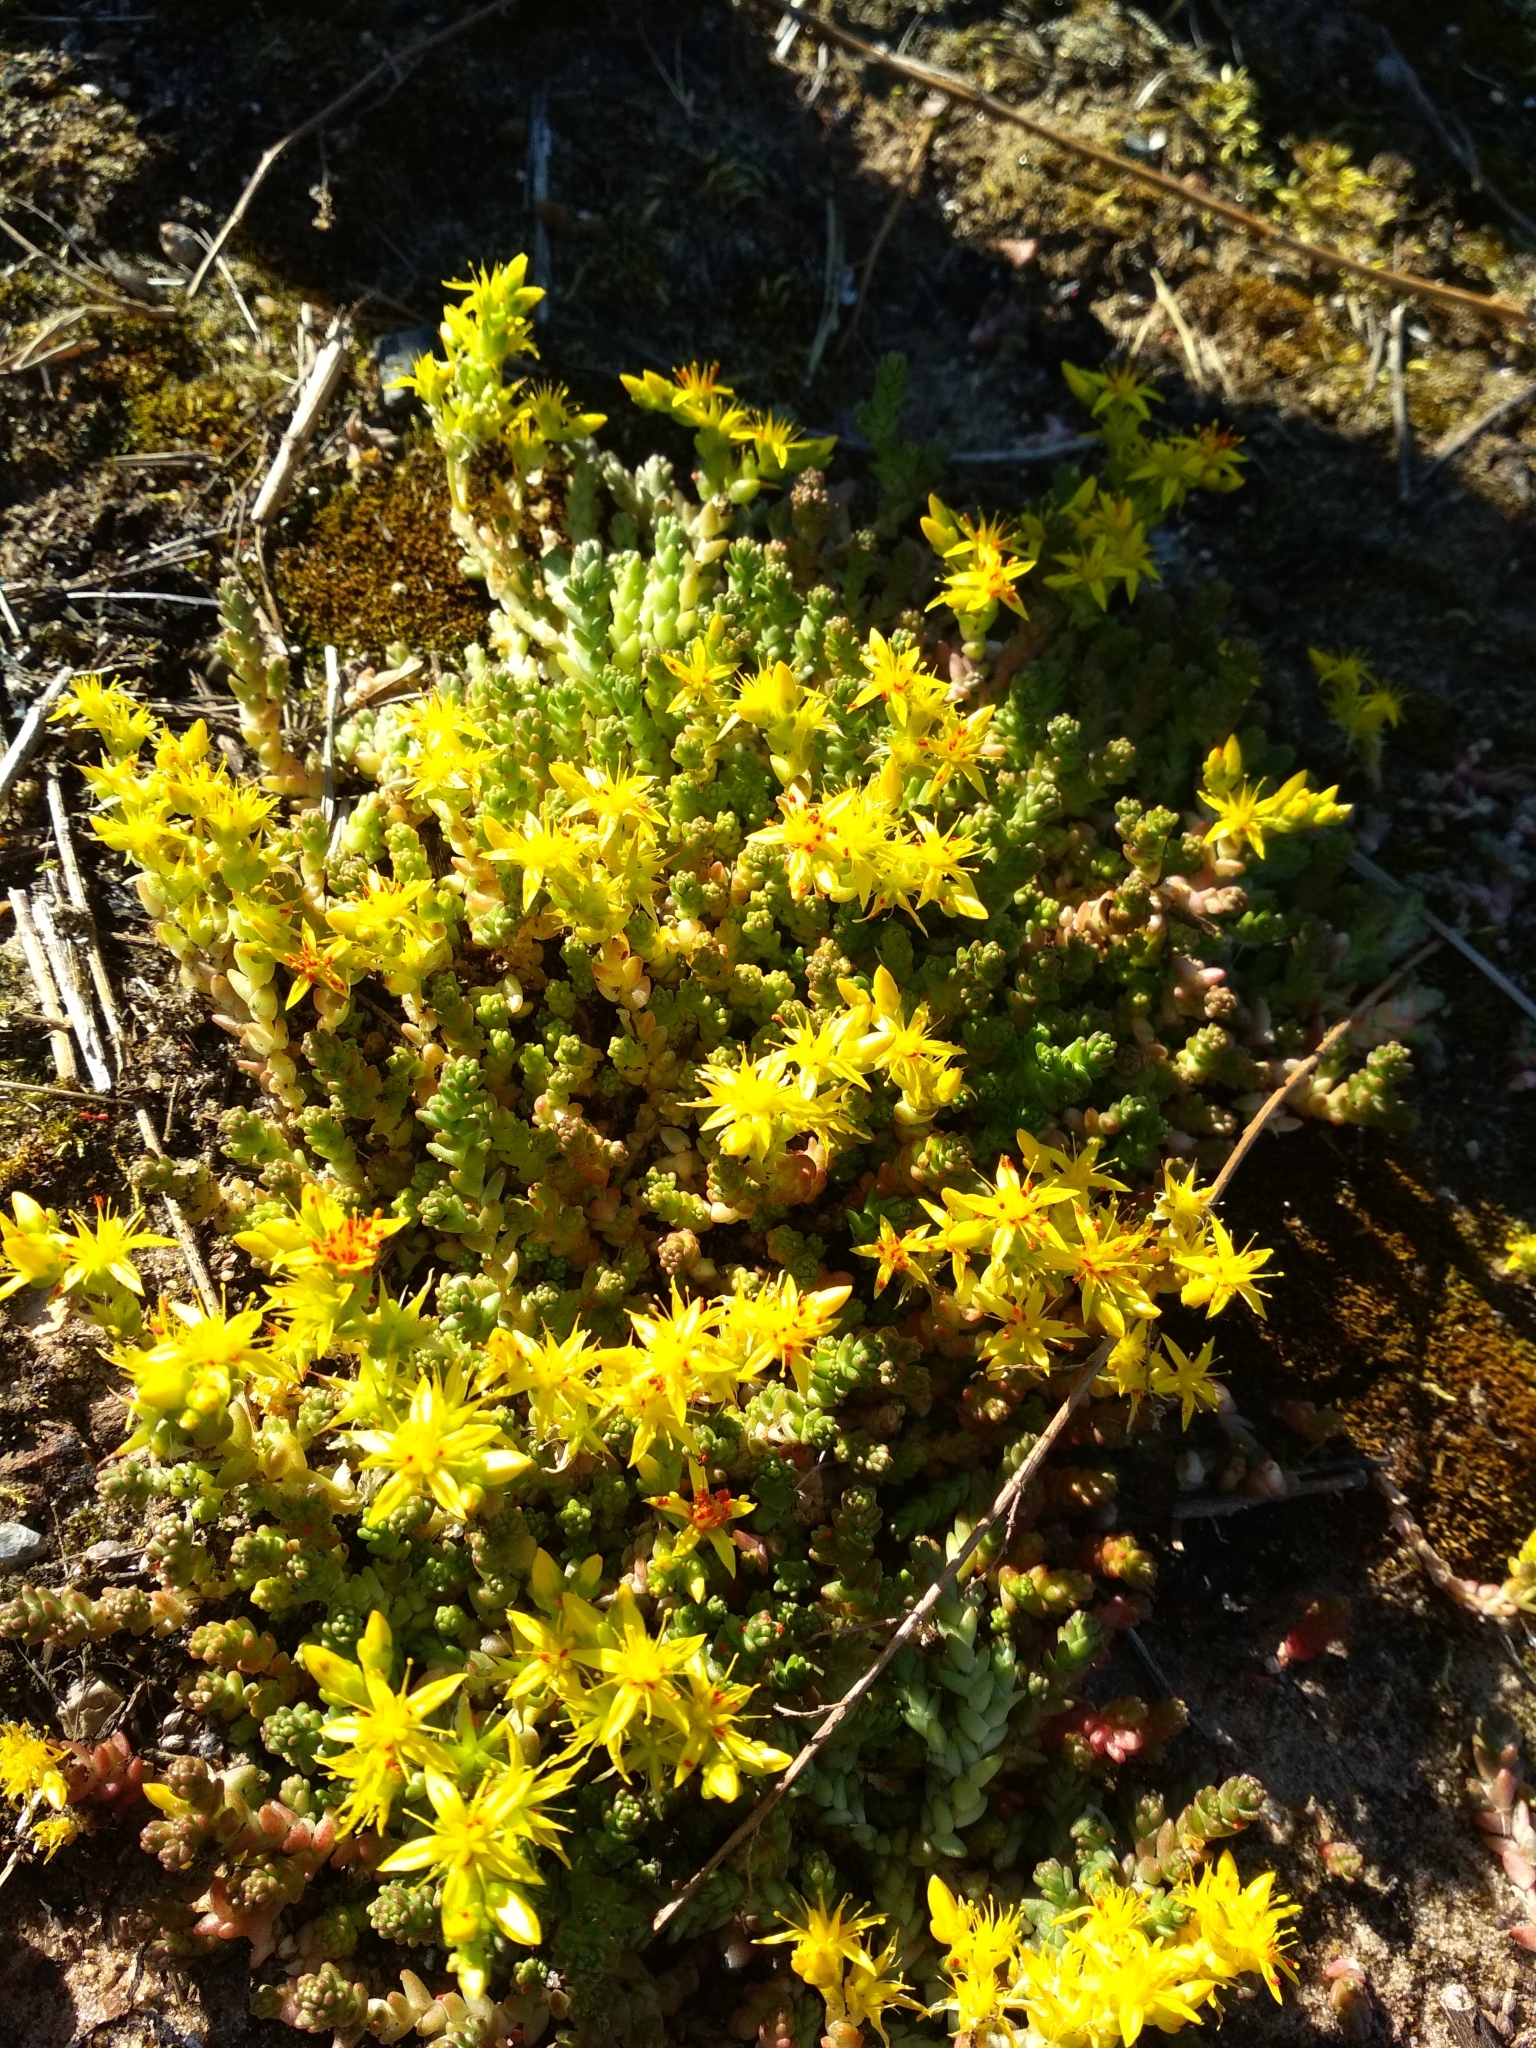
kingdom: Plantae
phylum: Tracheophyta
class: Magnoliopsida
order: Saxifragales
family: Crassulaceae
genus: Sedum
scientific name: Sedum acre
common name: Biting stonecrop
